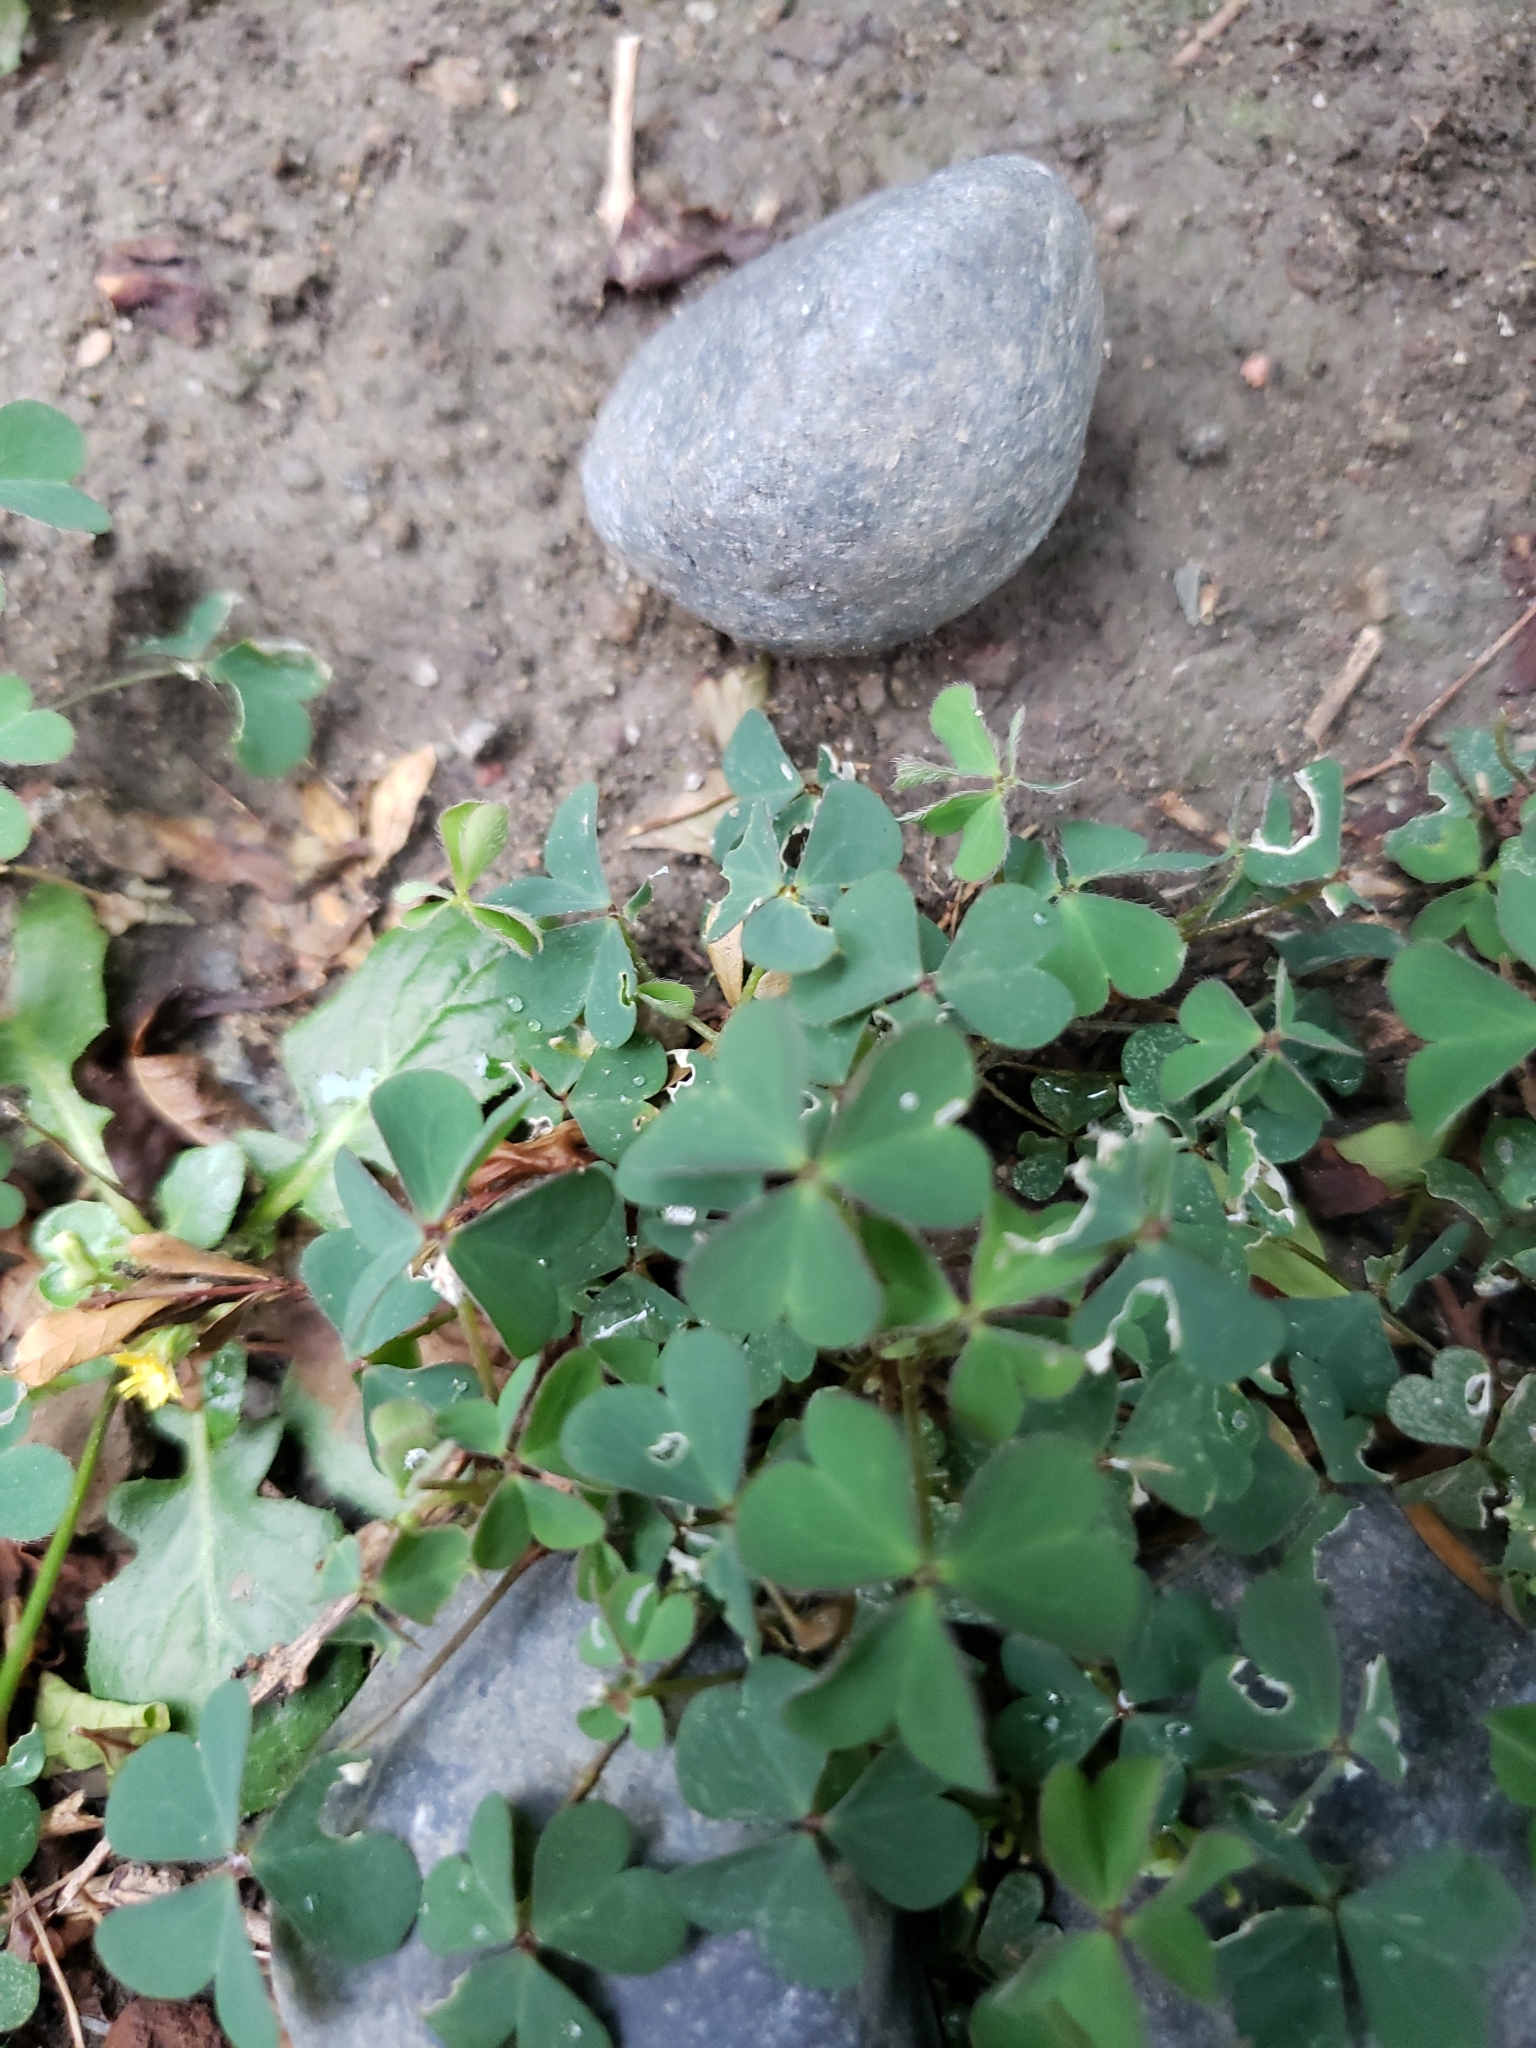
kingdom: Plantae
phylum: Tracheophyta
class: Magnoliopsida
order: Oxalidales
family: Oxalidaceae
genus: Oxalis
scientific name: Oxalis corniculata
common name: Procumbent yellow-sorrel
